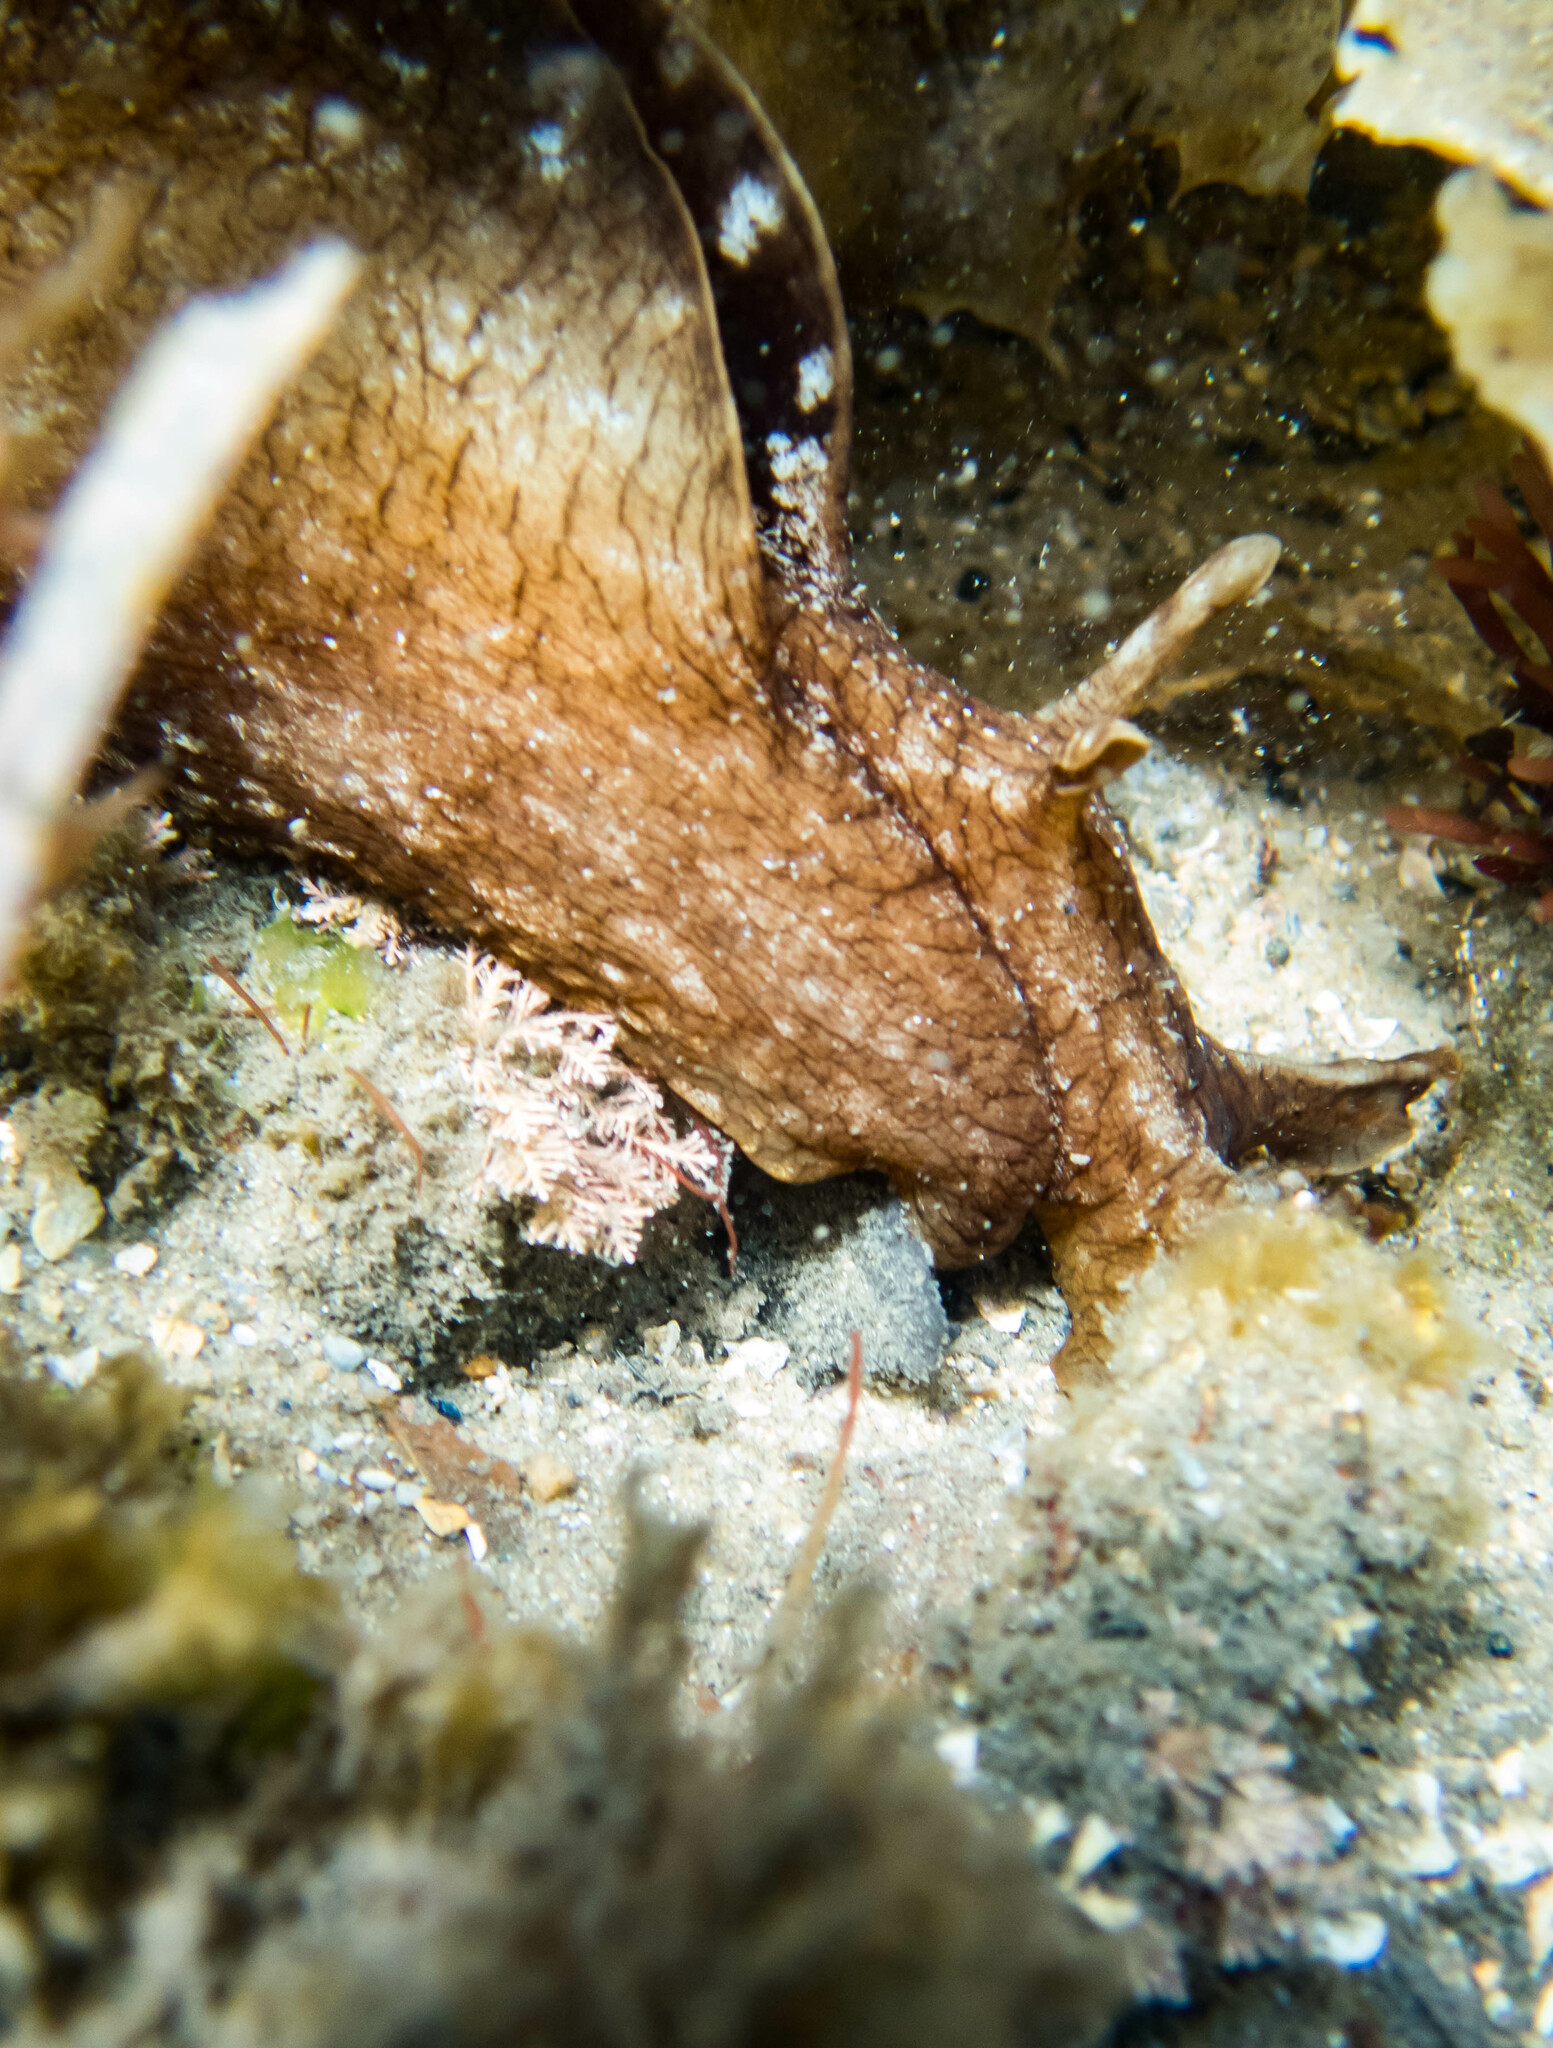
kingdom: Animalia
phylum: Mollusca
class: Gastropoda
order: Aplysiida
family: Aplysiidae
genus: Aplysia
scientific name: Aplysia sydneyensis
